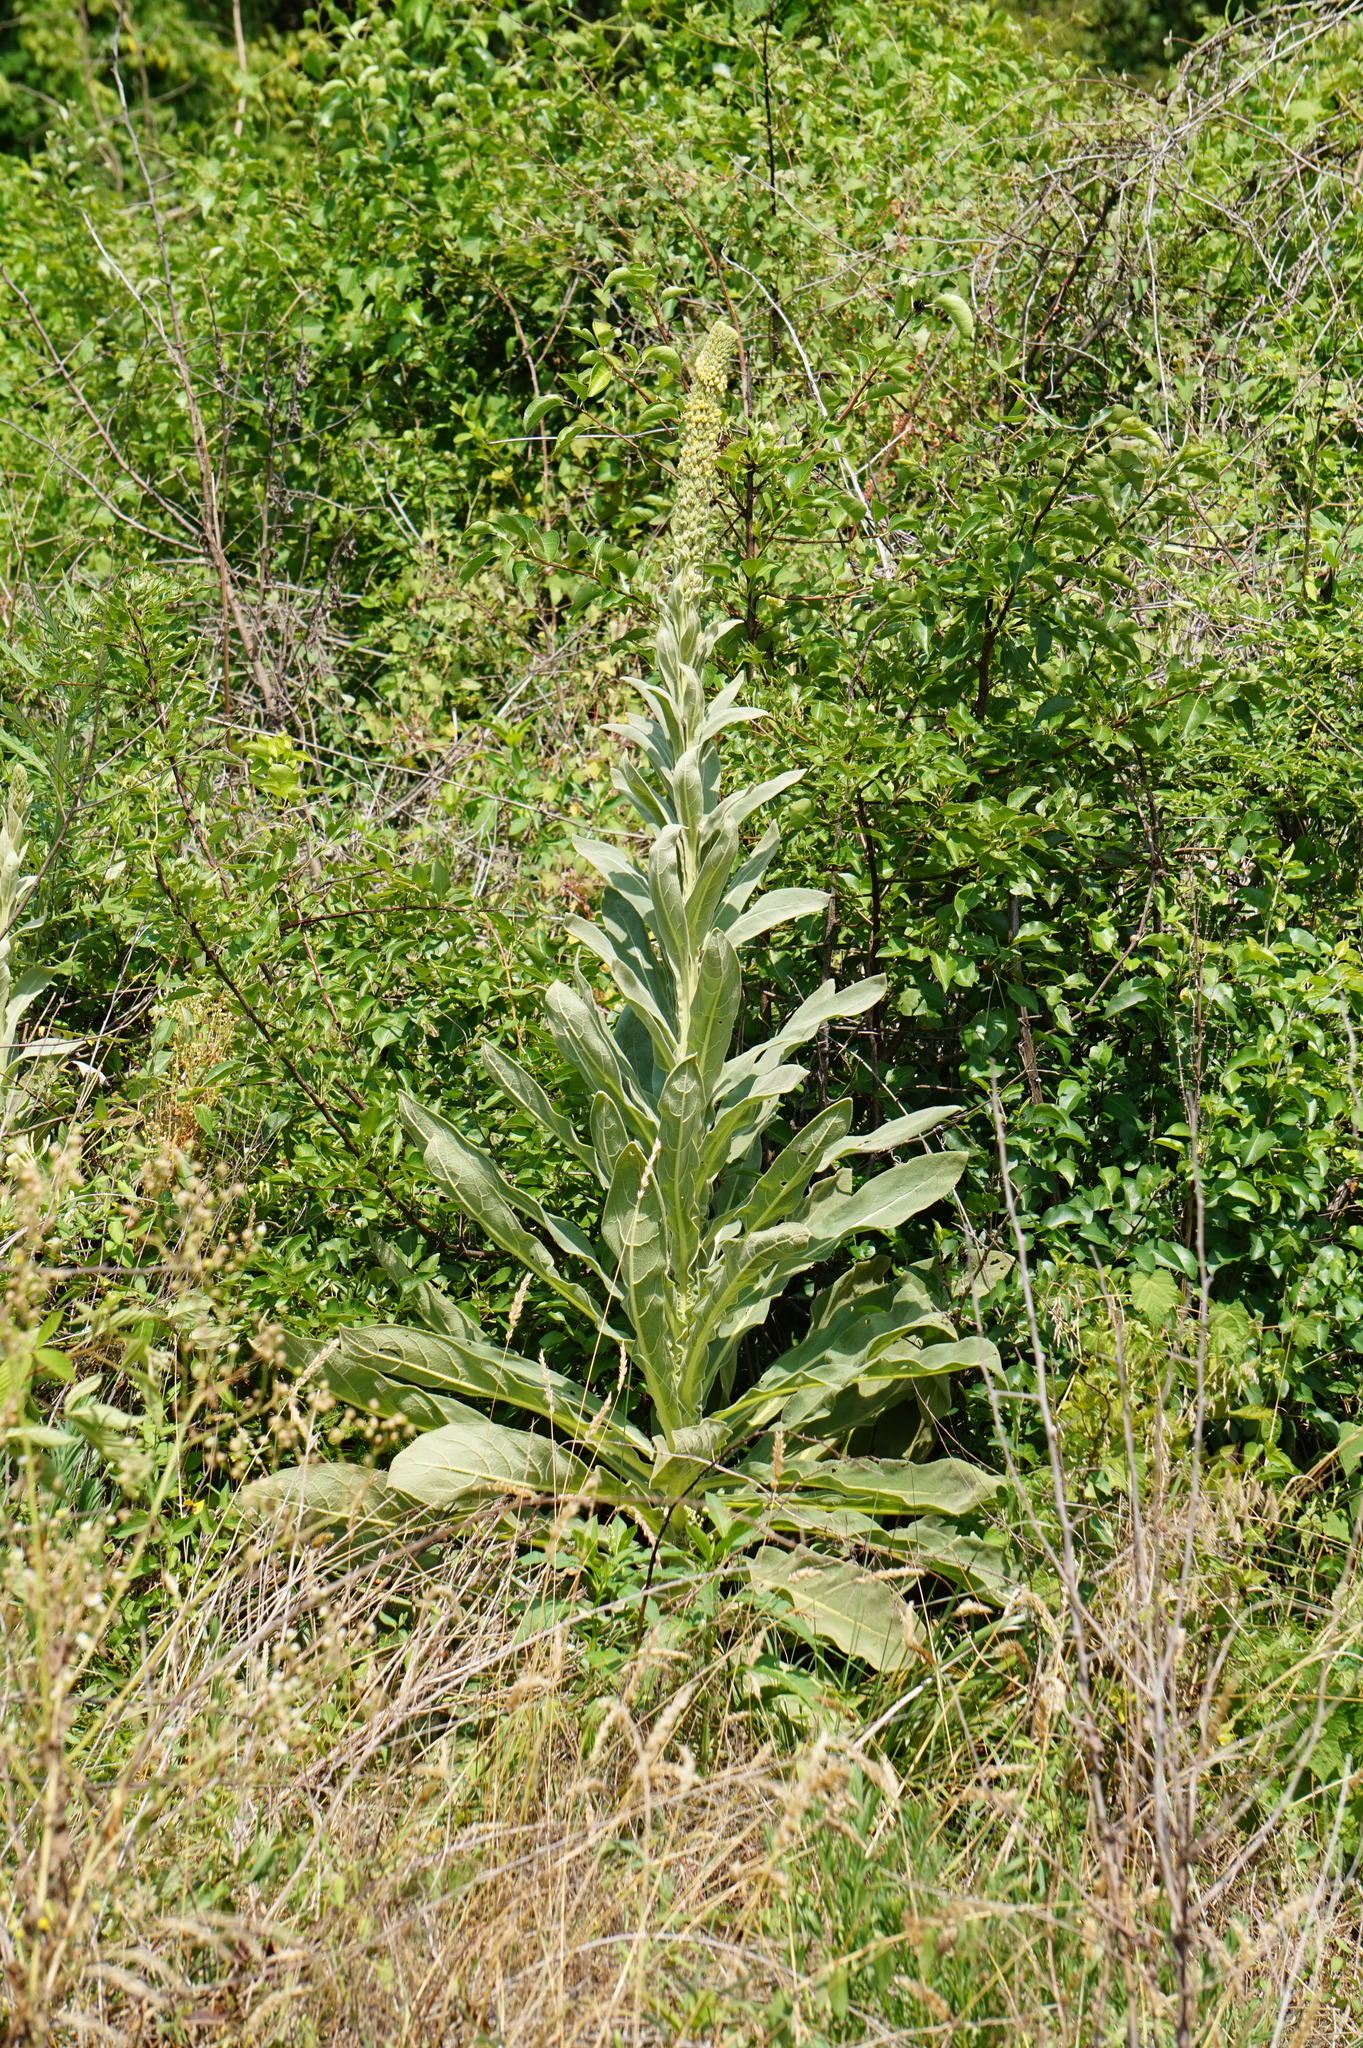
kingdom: Plantae
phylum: Tracheophyta
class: Magnoliopsida
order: Lamiales
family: Scrophulariaceae
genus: Verbascum
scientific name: Verbascum thapsus
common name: Common mullein
